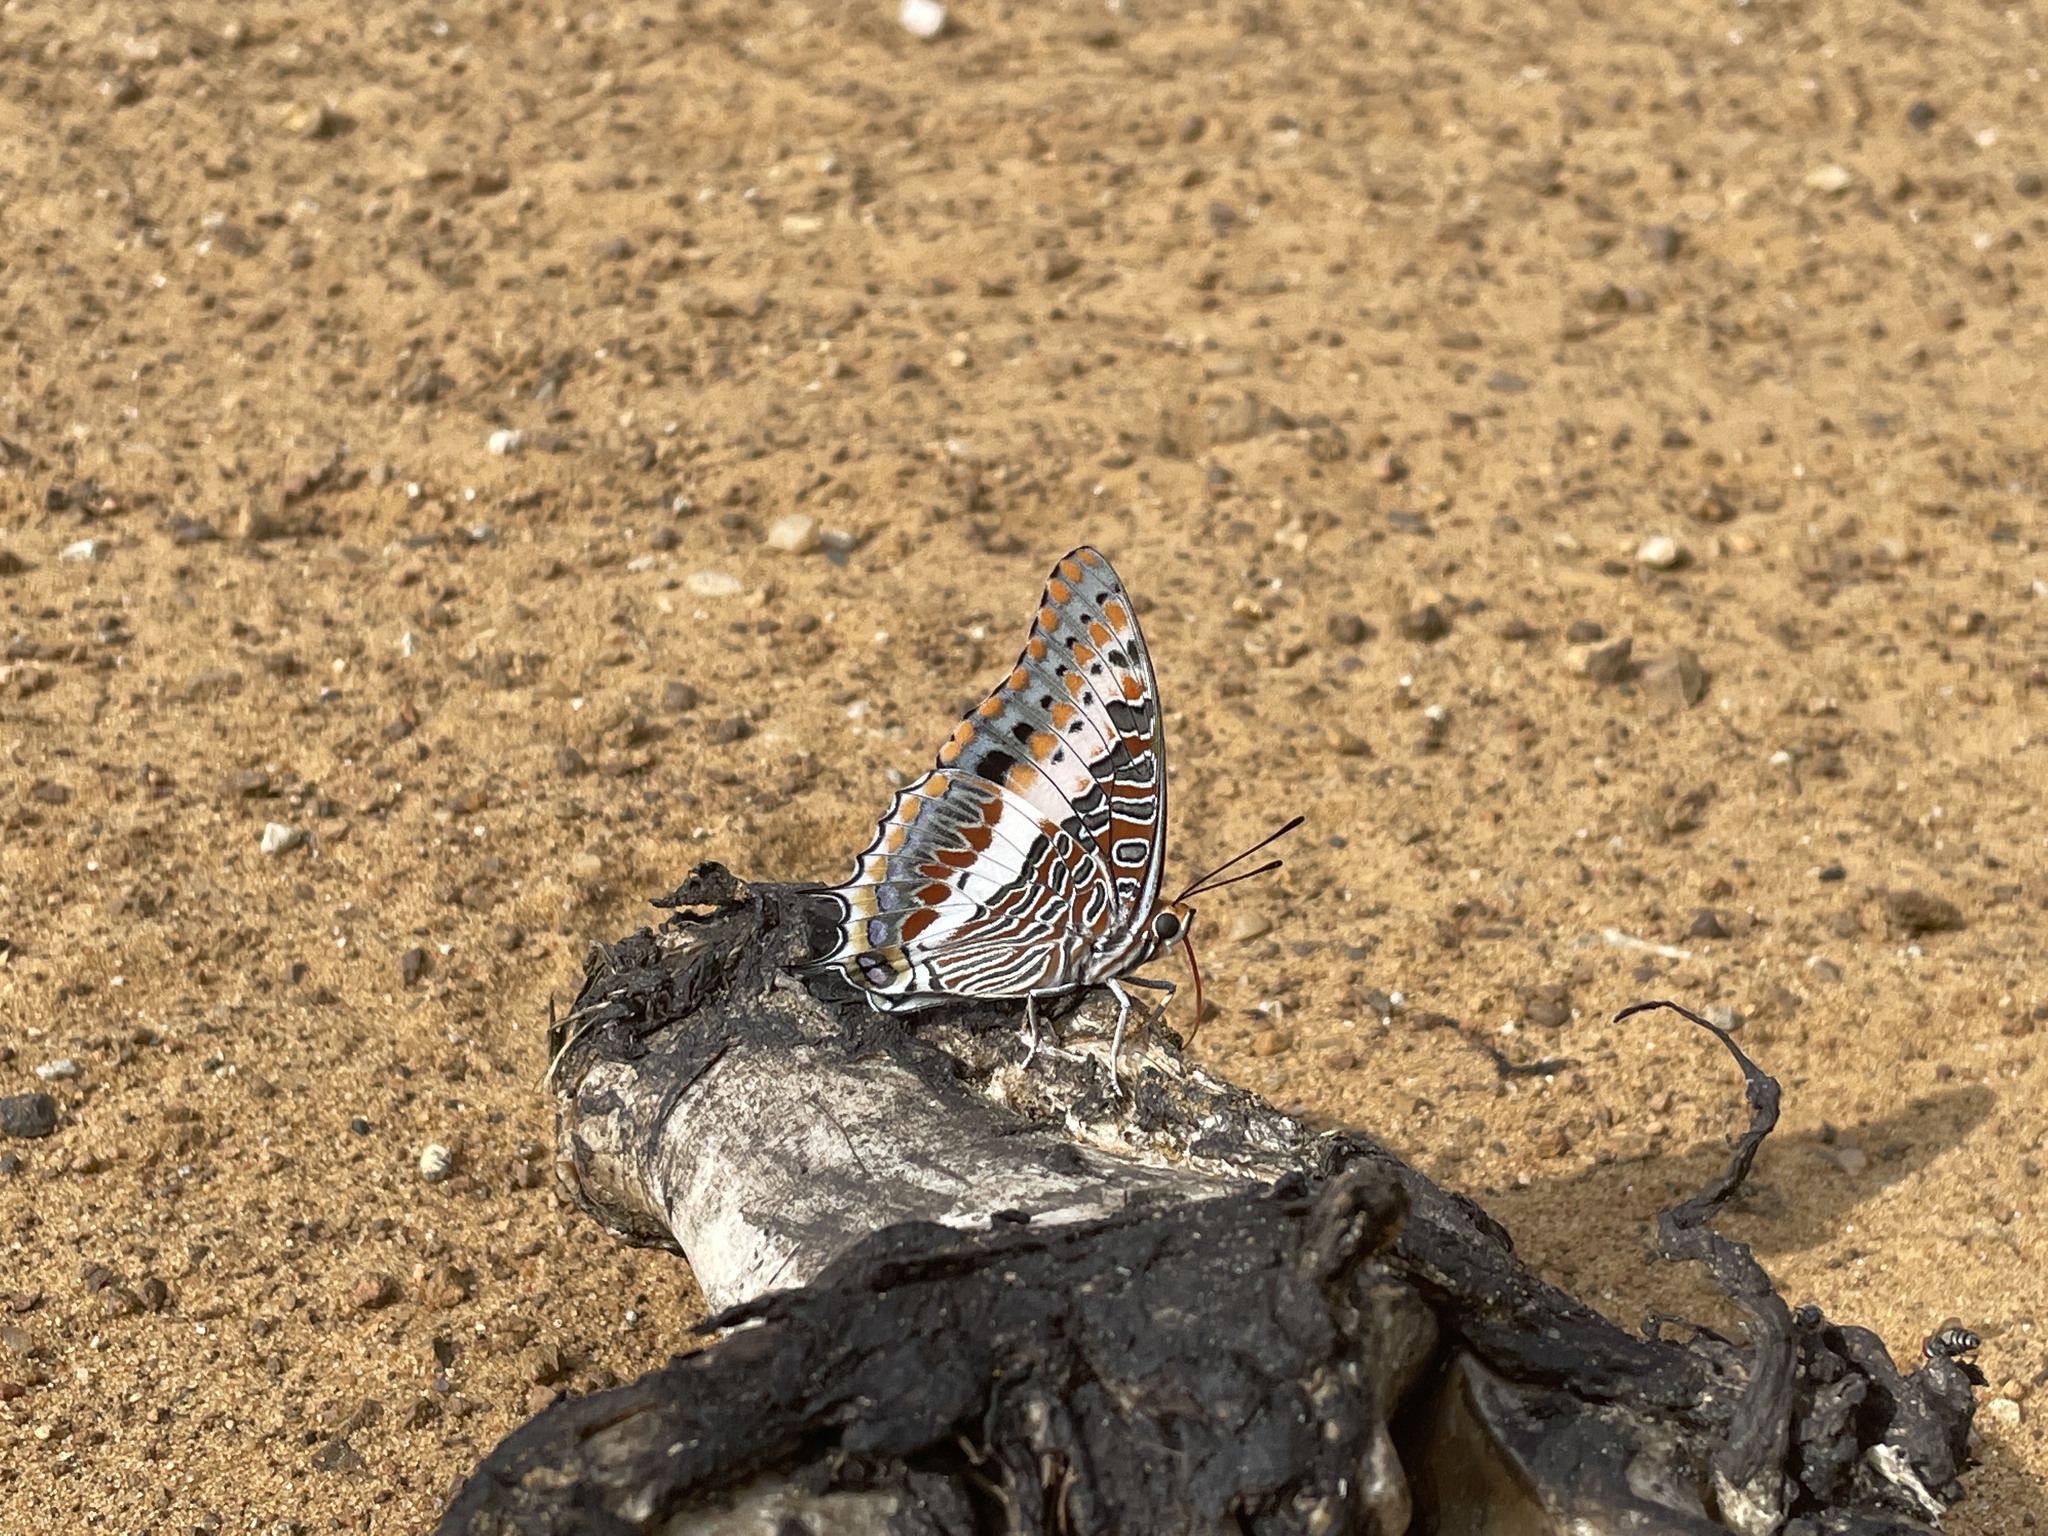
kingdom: Animalia
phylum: Arthropoda
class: Insecta
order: Lepidoptera
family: Nymphalidae
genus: Charaxes
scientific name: Charaxes jasius
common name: Two tailed pasha
